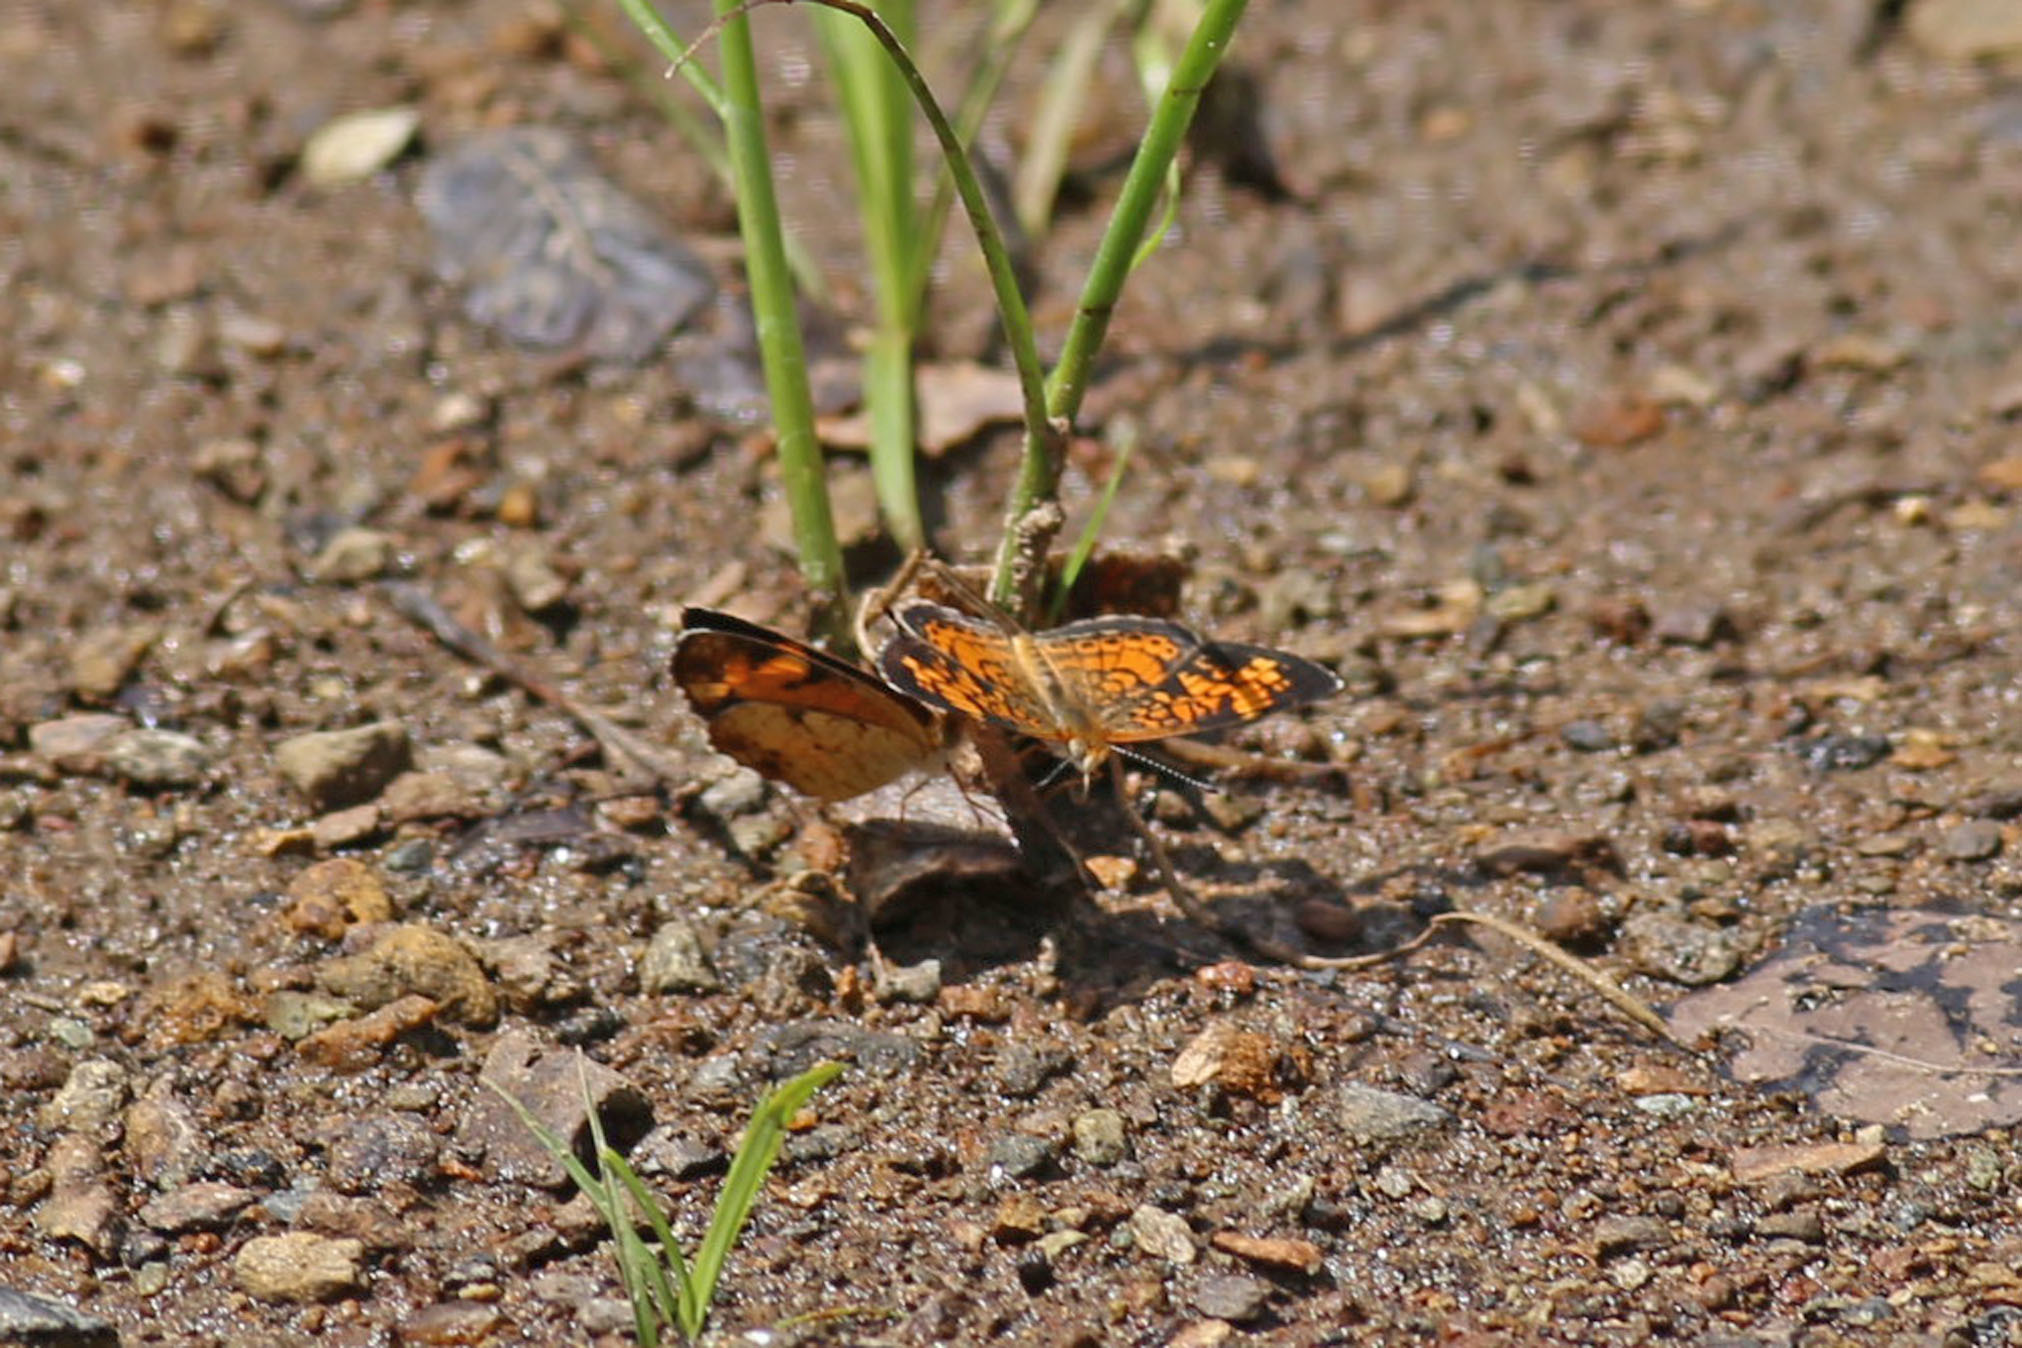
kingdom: Animalia
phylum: Arthropoda
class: Insecta
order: Lepidoptera
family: Nymphalidae
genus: Phyciodes
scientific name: Phyciodes tharos
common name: Pearl crescent
